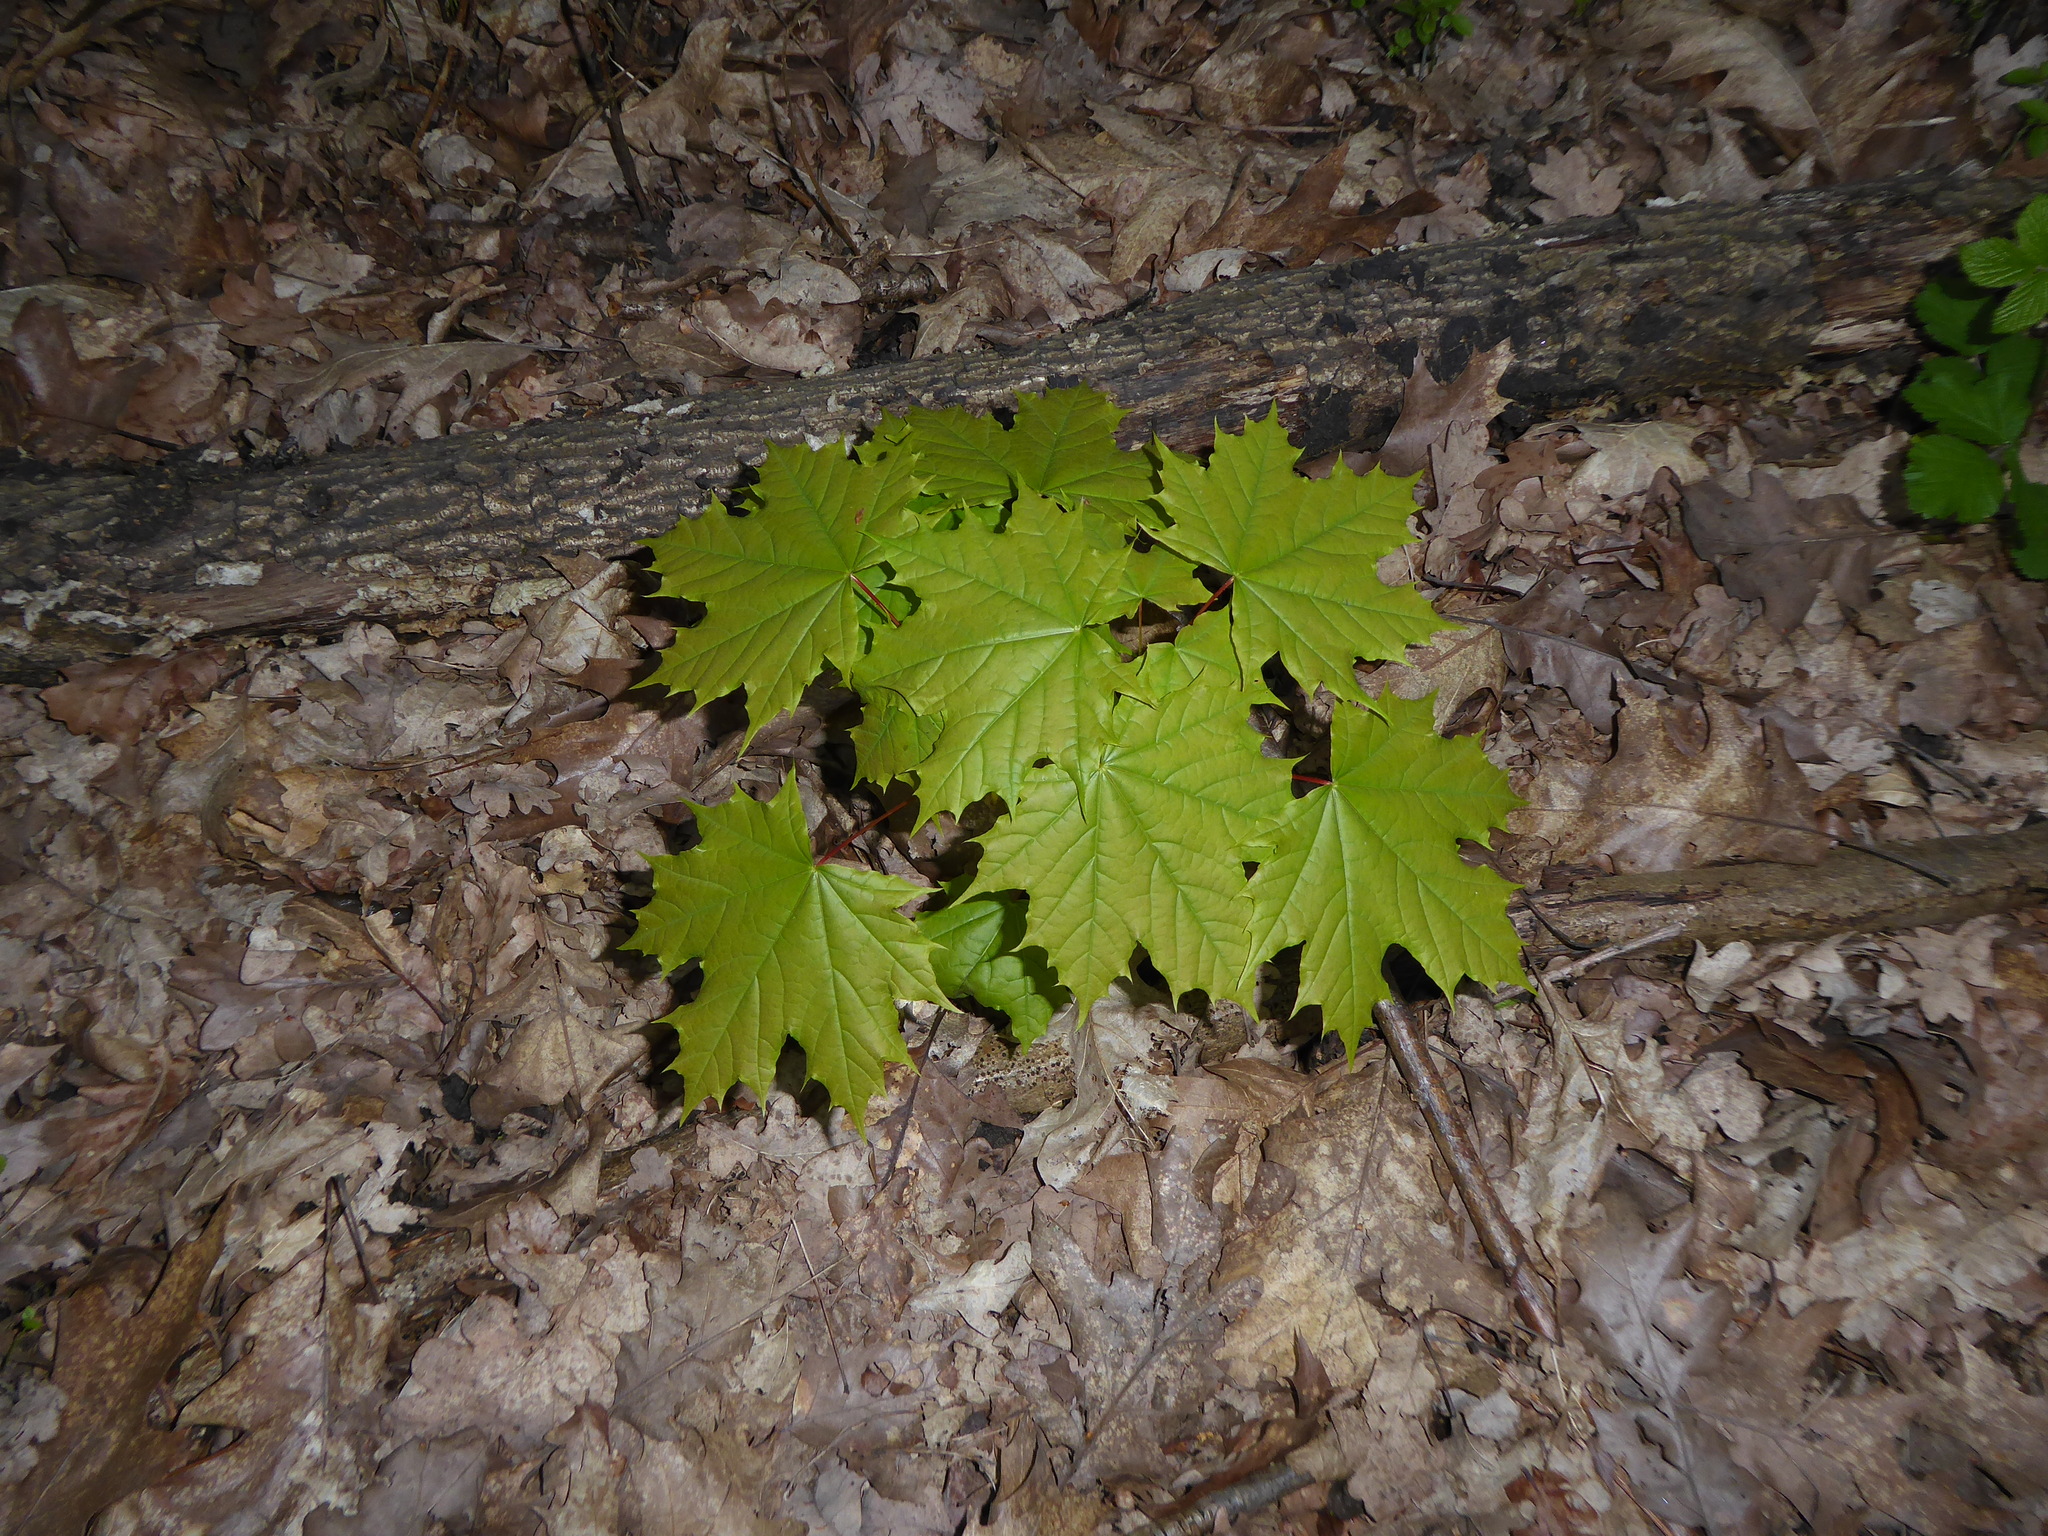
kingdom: Plantae
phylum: Tracheophyta
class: Magnoliopsida
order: Sapindales
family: Sapindaceae
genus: Acer
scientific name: Acer platanoides
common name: Norway maple
